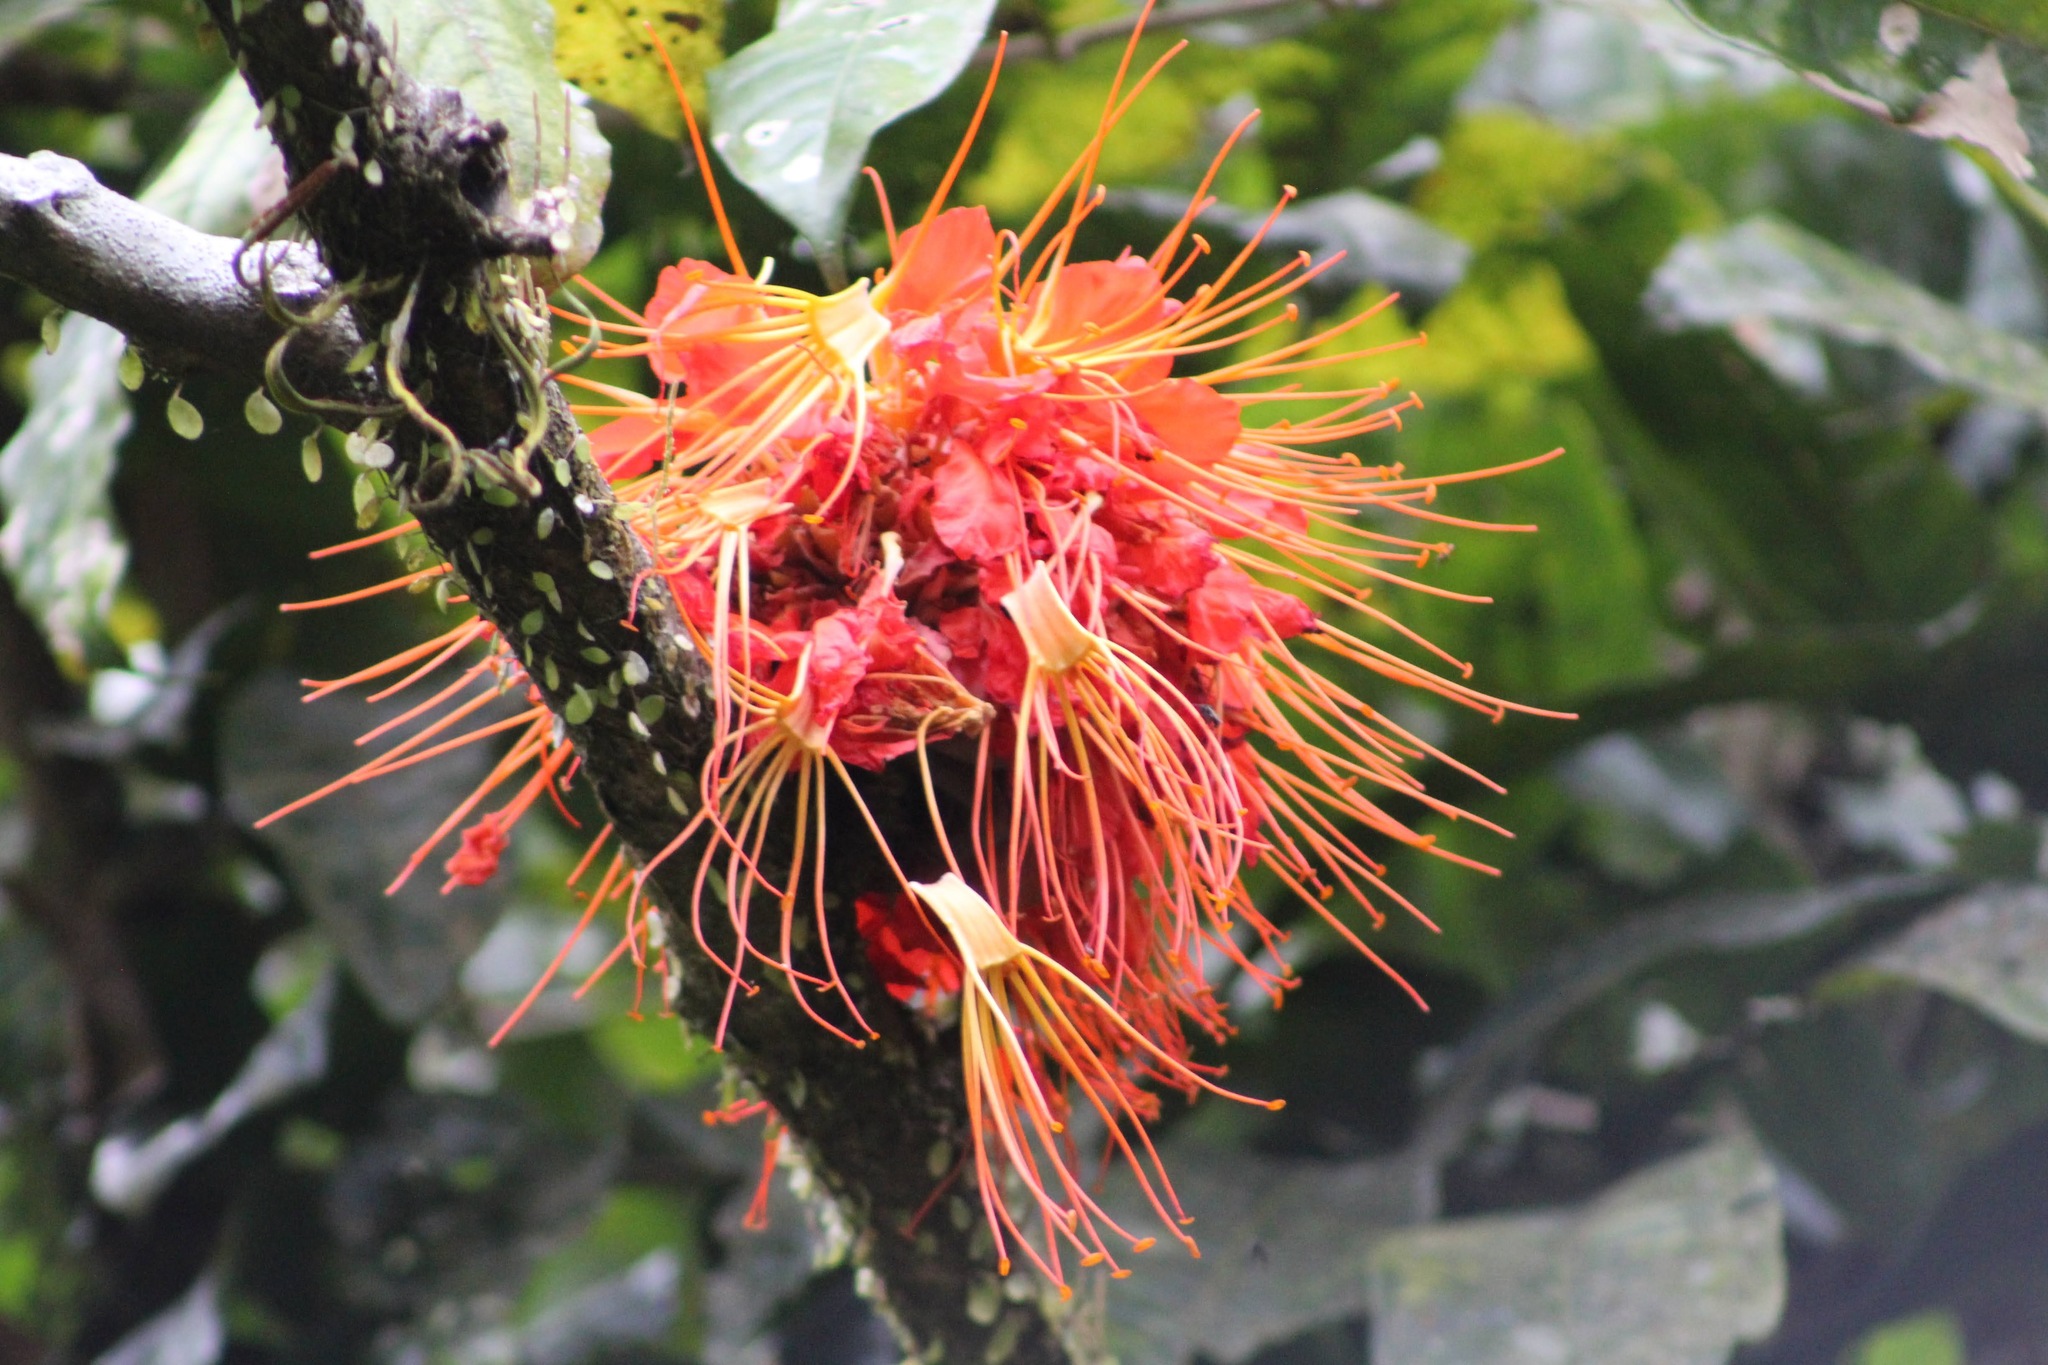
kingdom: Plantae
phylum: Tracheophyta
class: Magnoliopsida
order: Fabales
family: Fabaceae
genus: Brownea
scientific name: Brownea macrophylla
